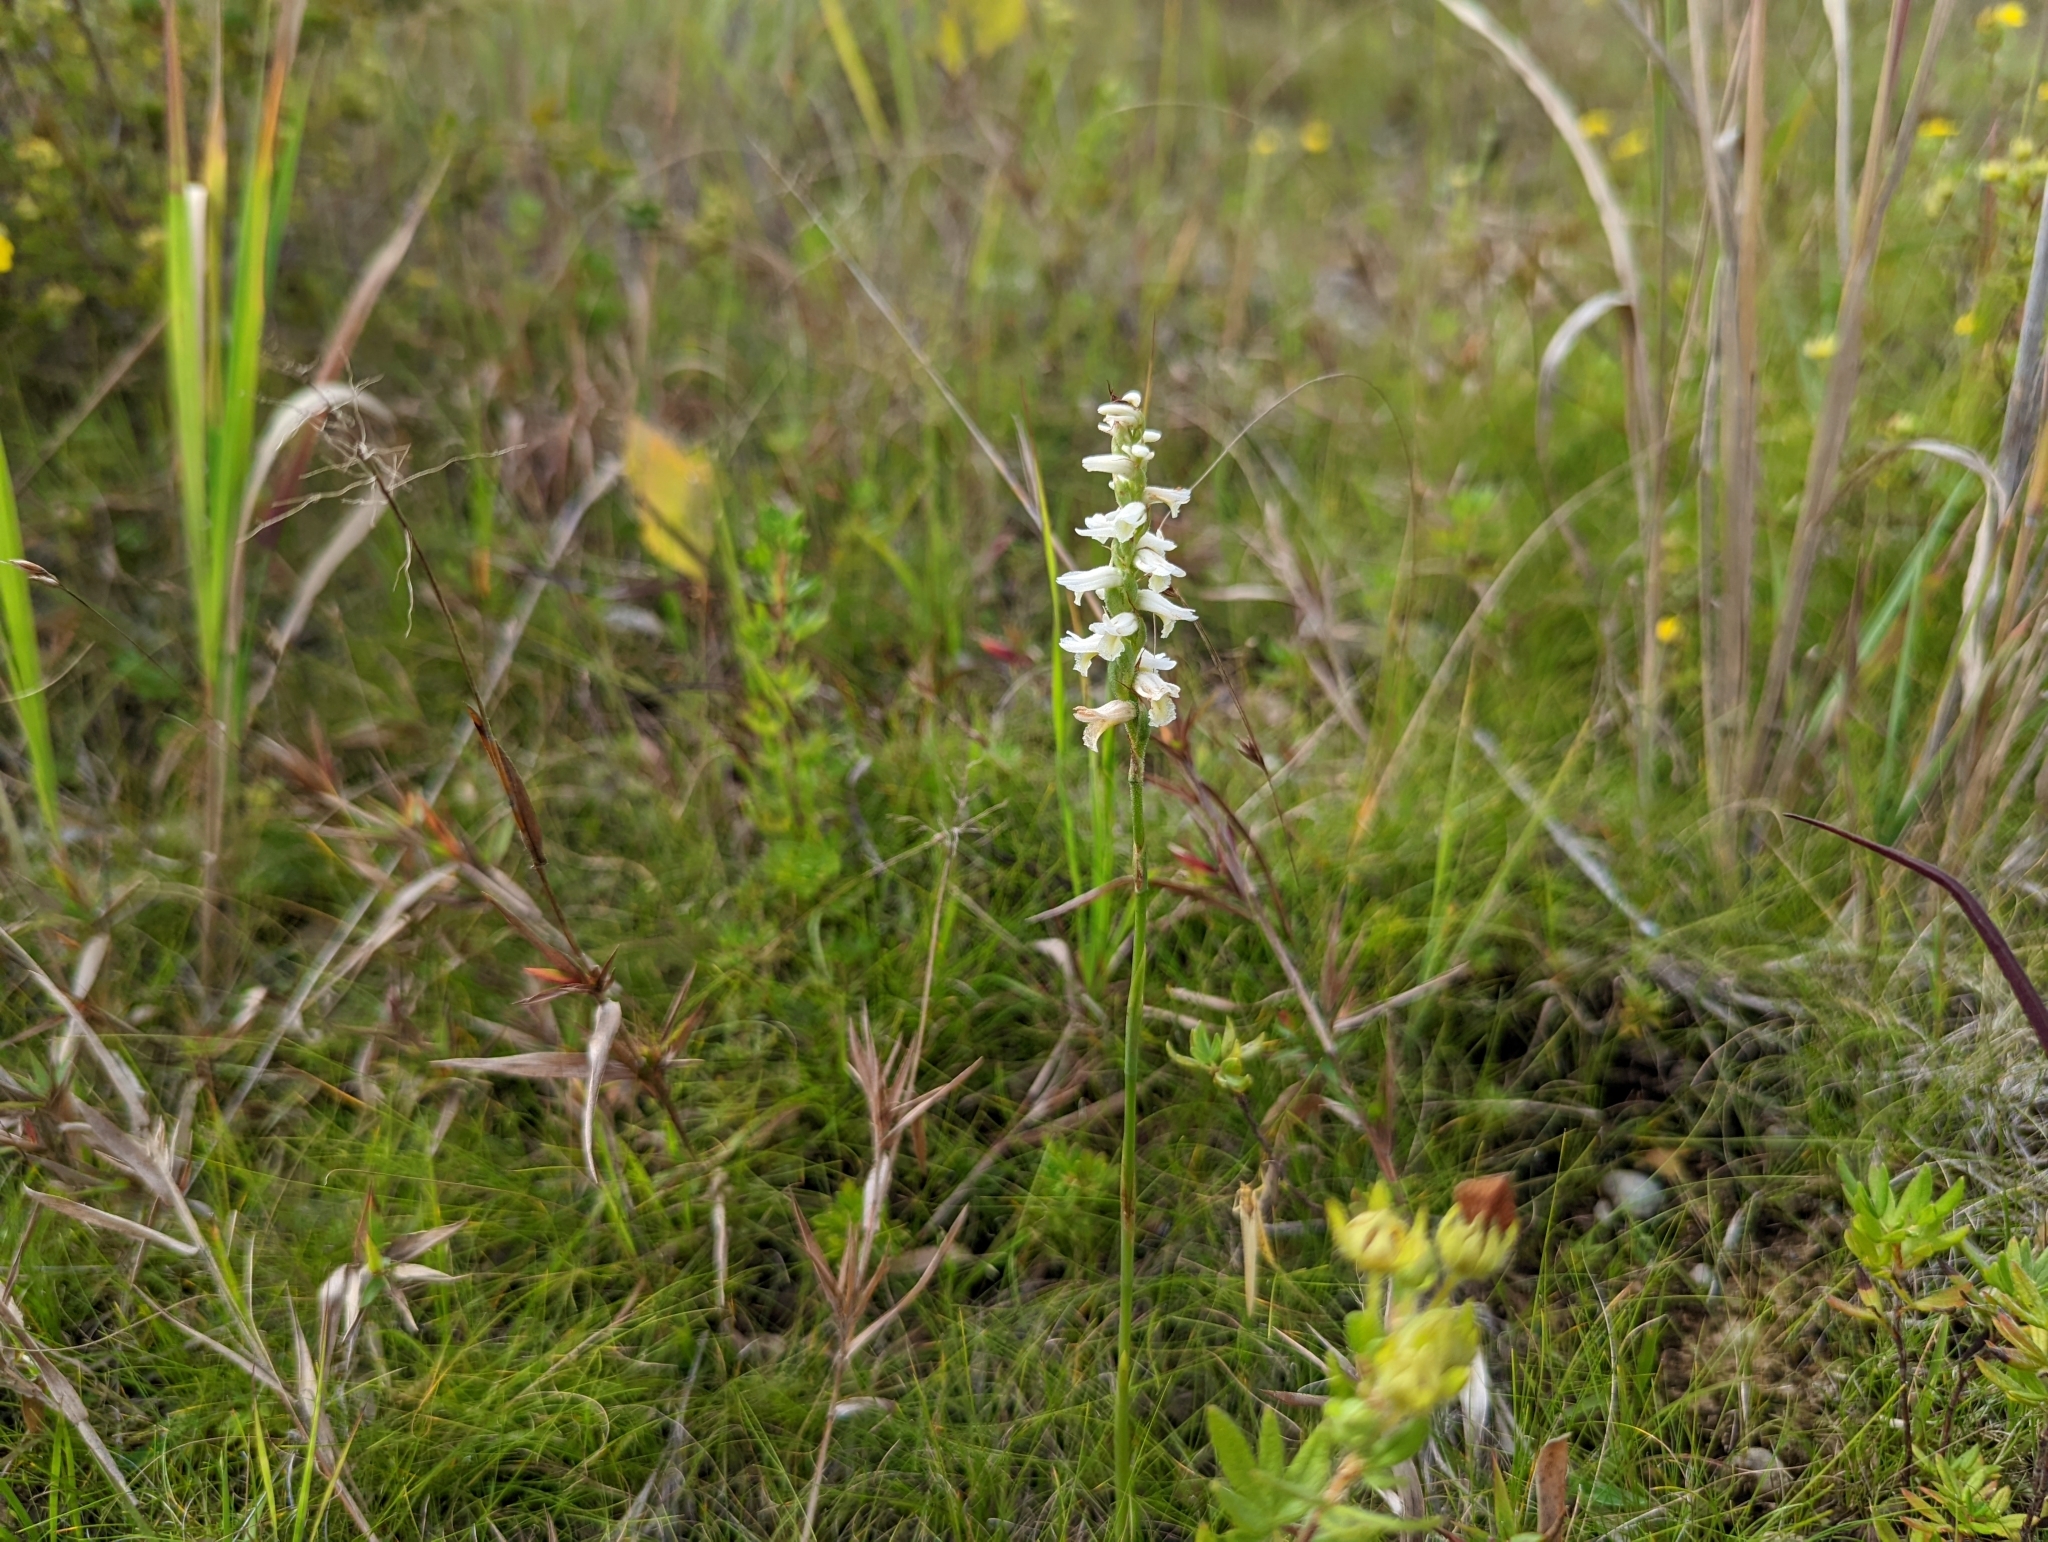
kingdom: Plantae
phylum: Tracheophyta
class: Liliopsida
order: Asparagales
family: Orchidaceae
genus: Spiranthes
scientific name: Spiranthes magnicamporum
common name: Great plains ladies'-tresses
